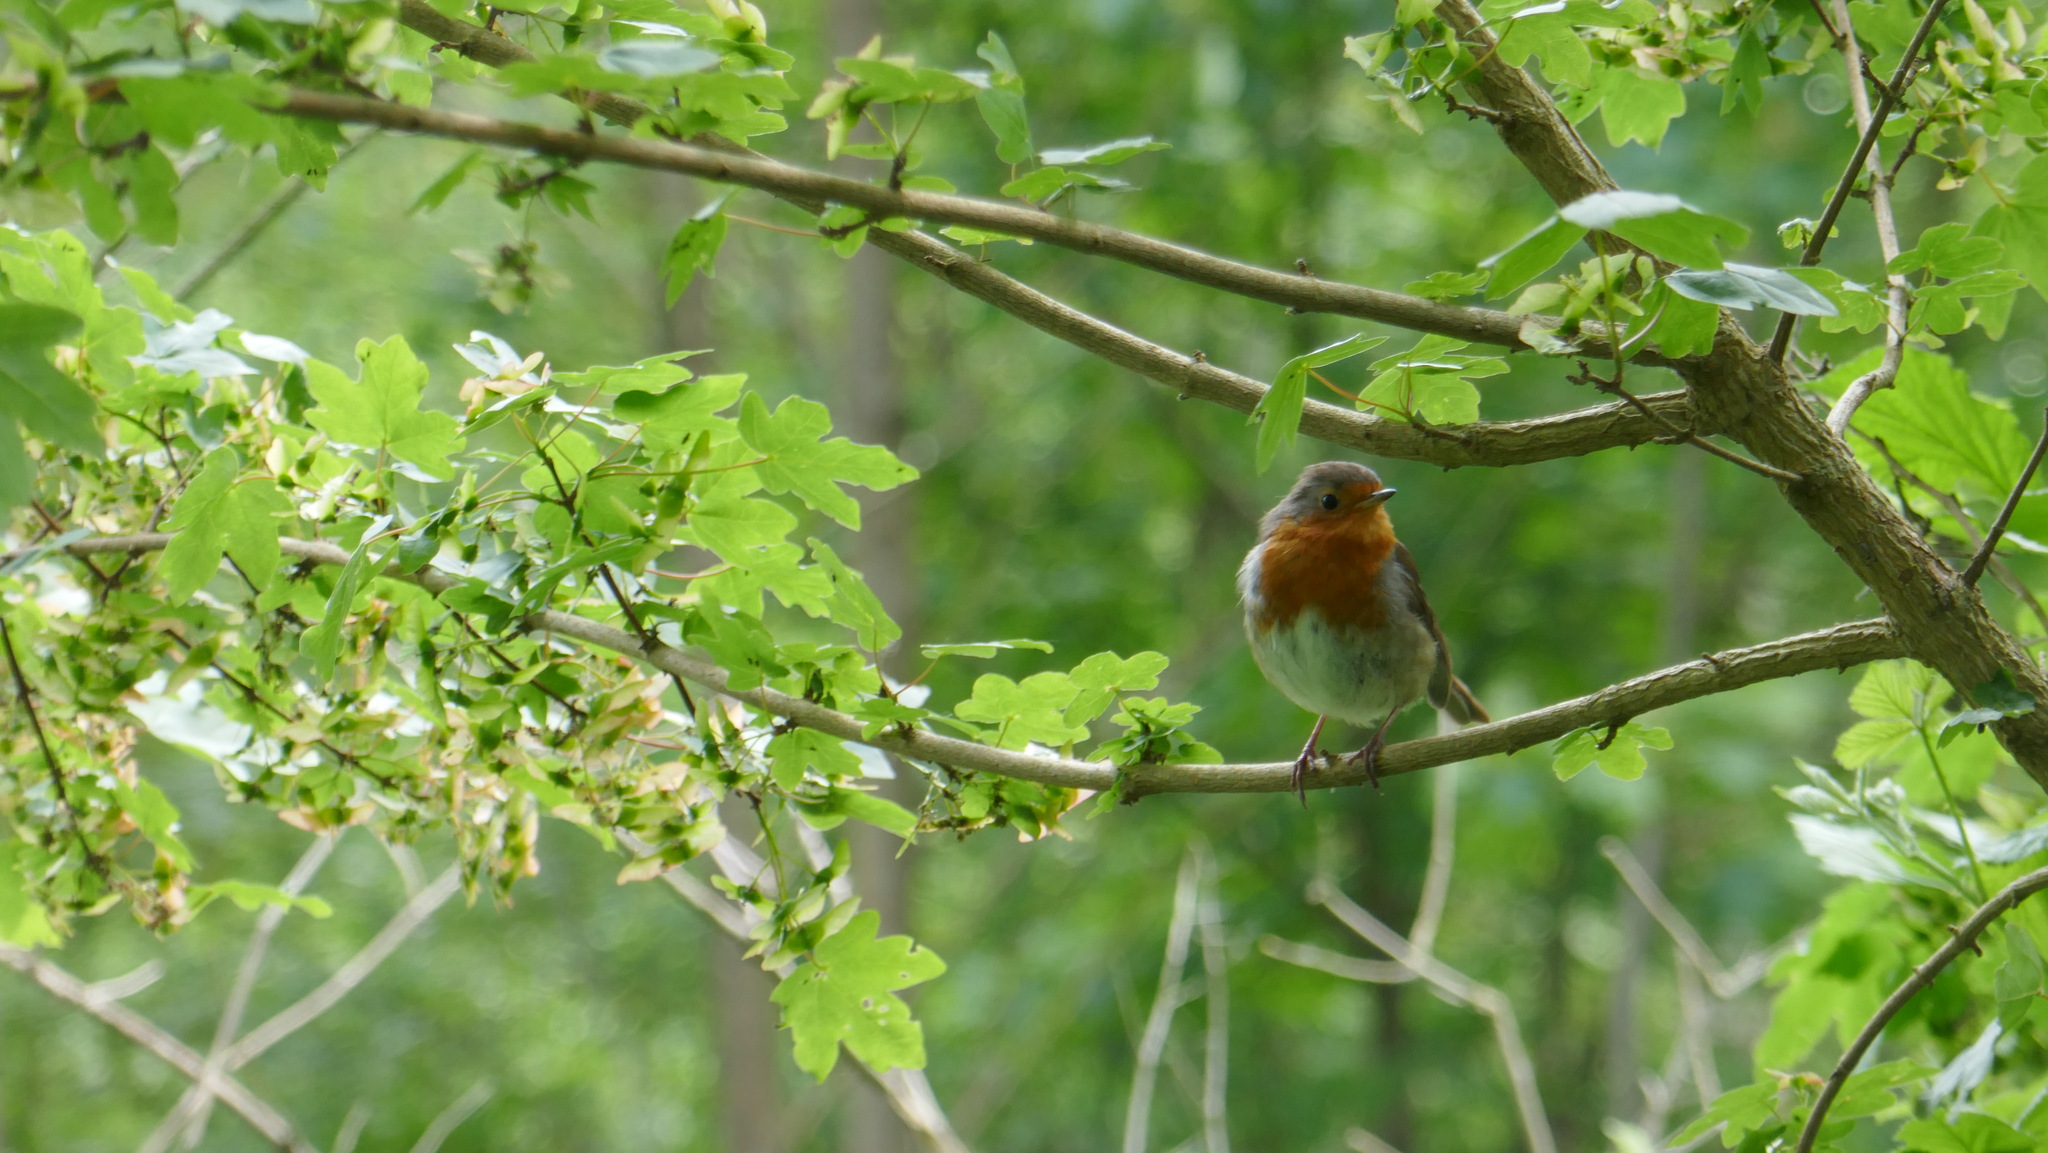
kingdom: Animalia
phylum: Chordata
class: Aves
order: Passeriformes
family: Muscicapidae
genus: Erithacus
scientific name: Erithacus rubecula
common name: European robin
